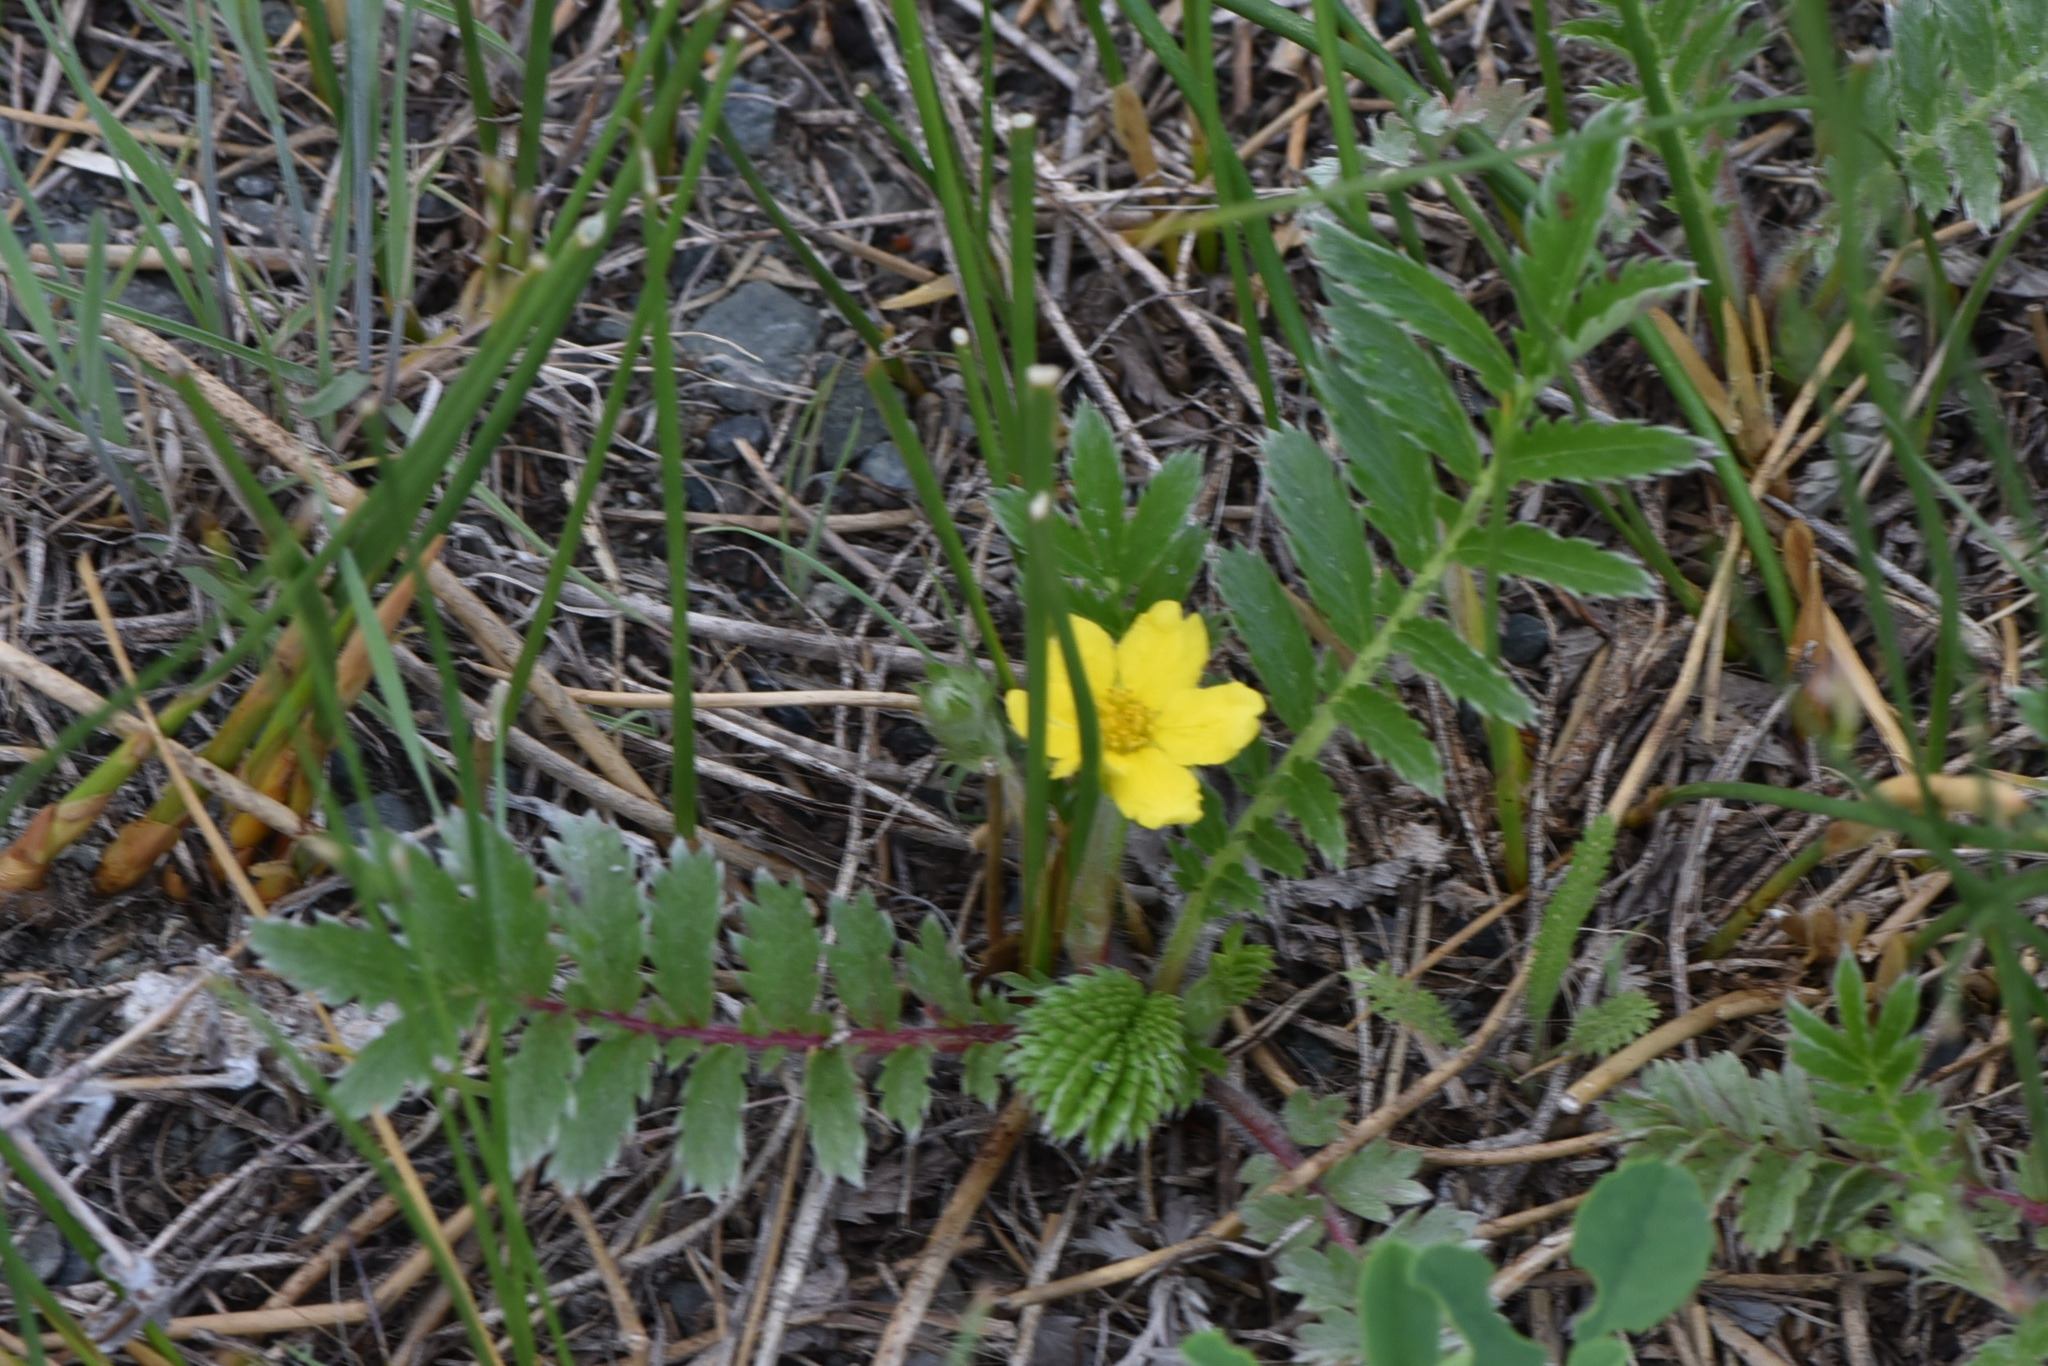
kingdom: Plantae
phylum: Tracheophyta
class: Magnoliopsida
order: Rosales
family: Rosaceae
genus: Argentina
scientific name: Argentina anserina
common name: Common silverweed
